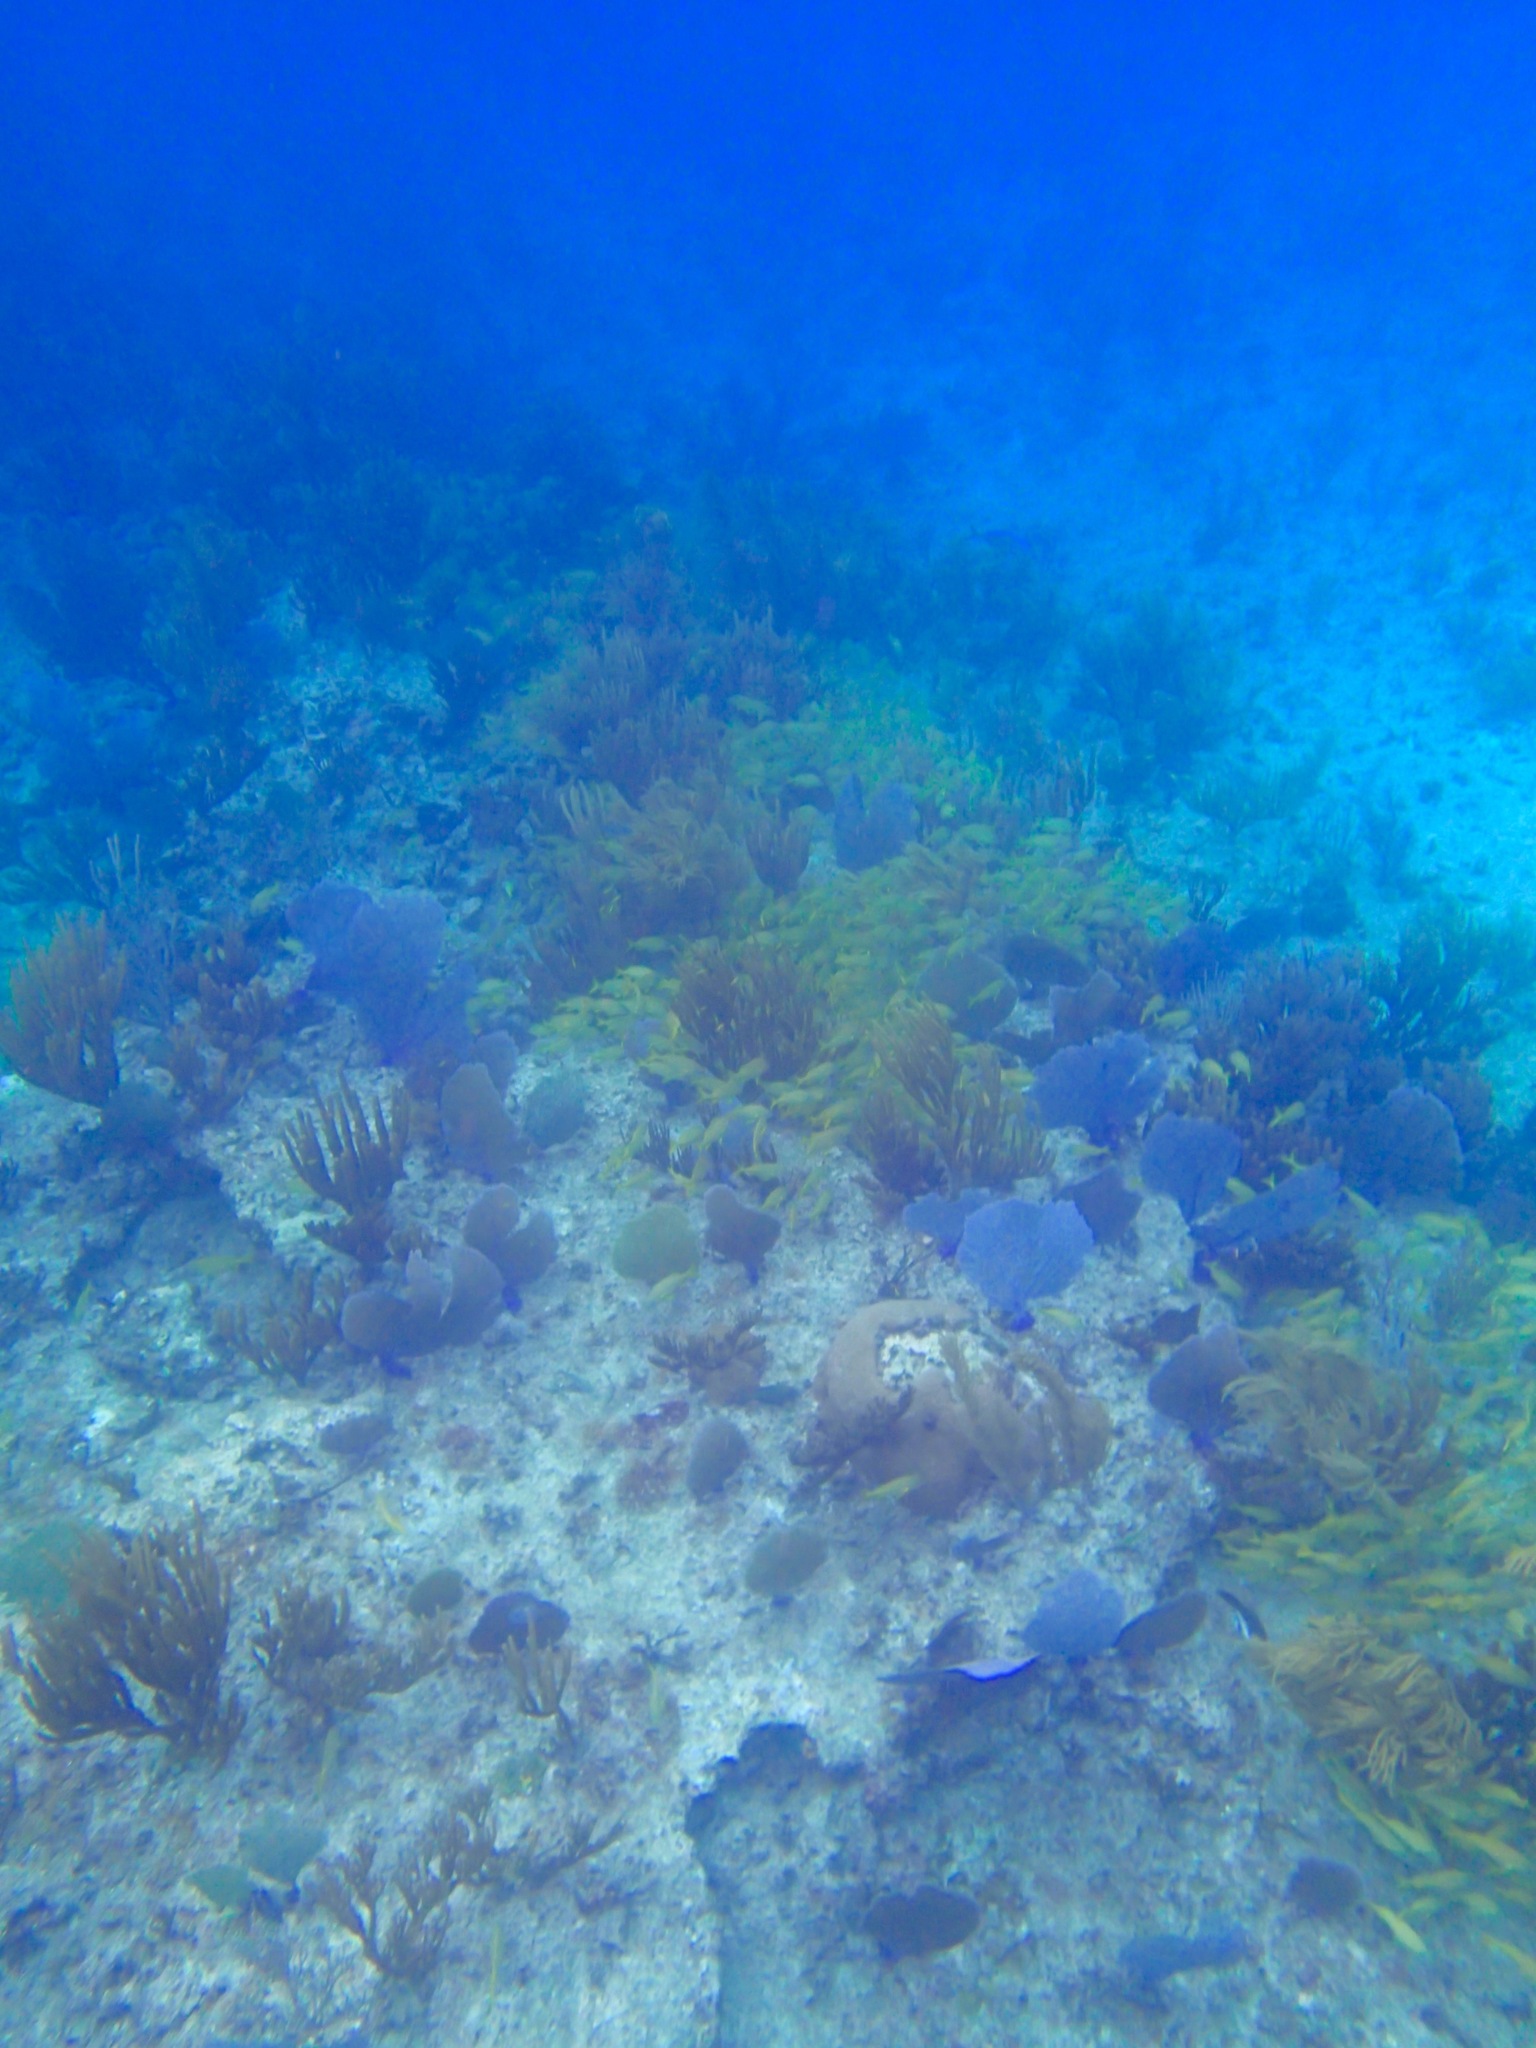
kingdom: Animalia
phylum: Chordata
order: Perciformes
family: Haemulidae
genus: Haemulon
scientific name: Haemulon flavolineatum
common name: French grunt
